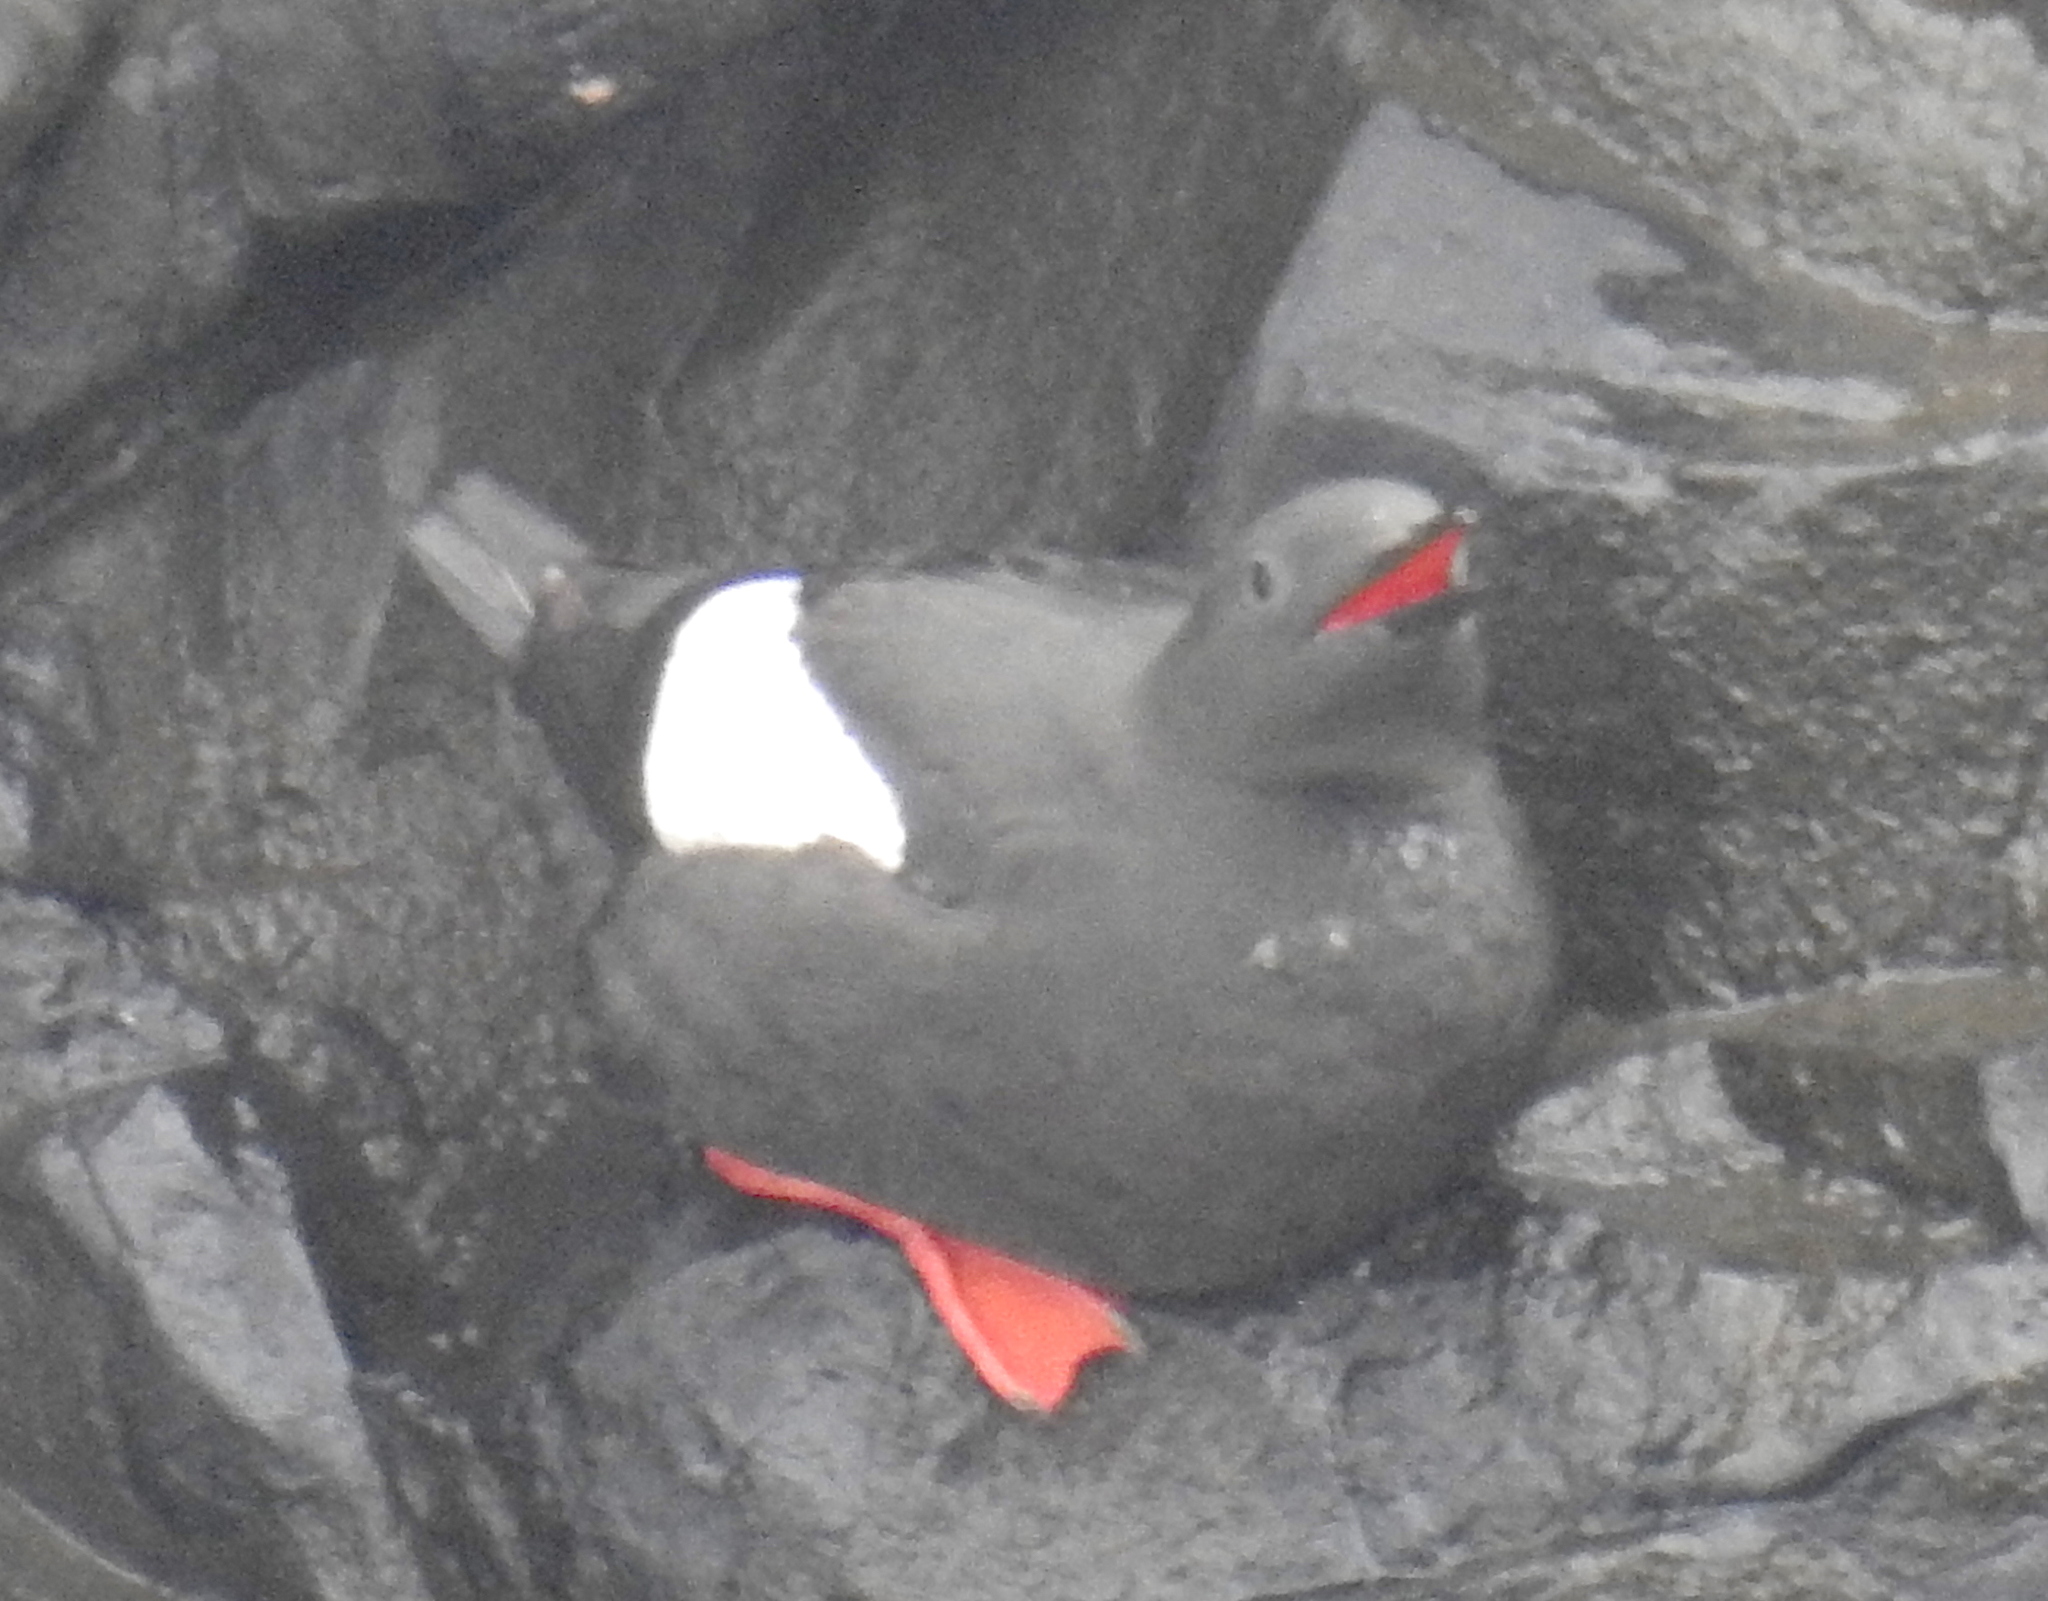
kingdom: Animalia
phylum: Chordata
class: Aves
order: Charadriiformes
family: Alcidae
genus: Cepphus
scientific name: Cepphus grylle
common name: Black guillemot
